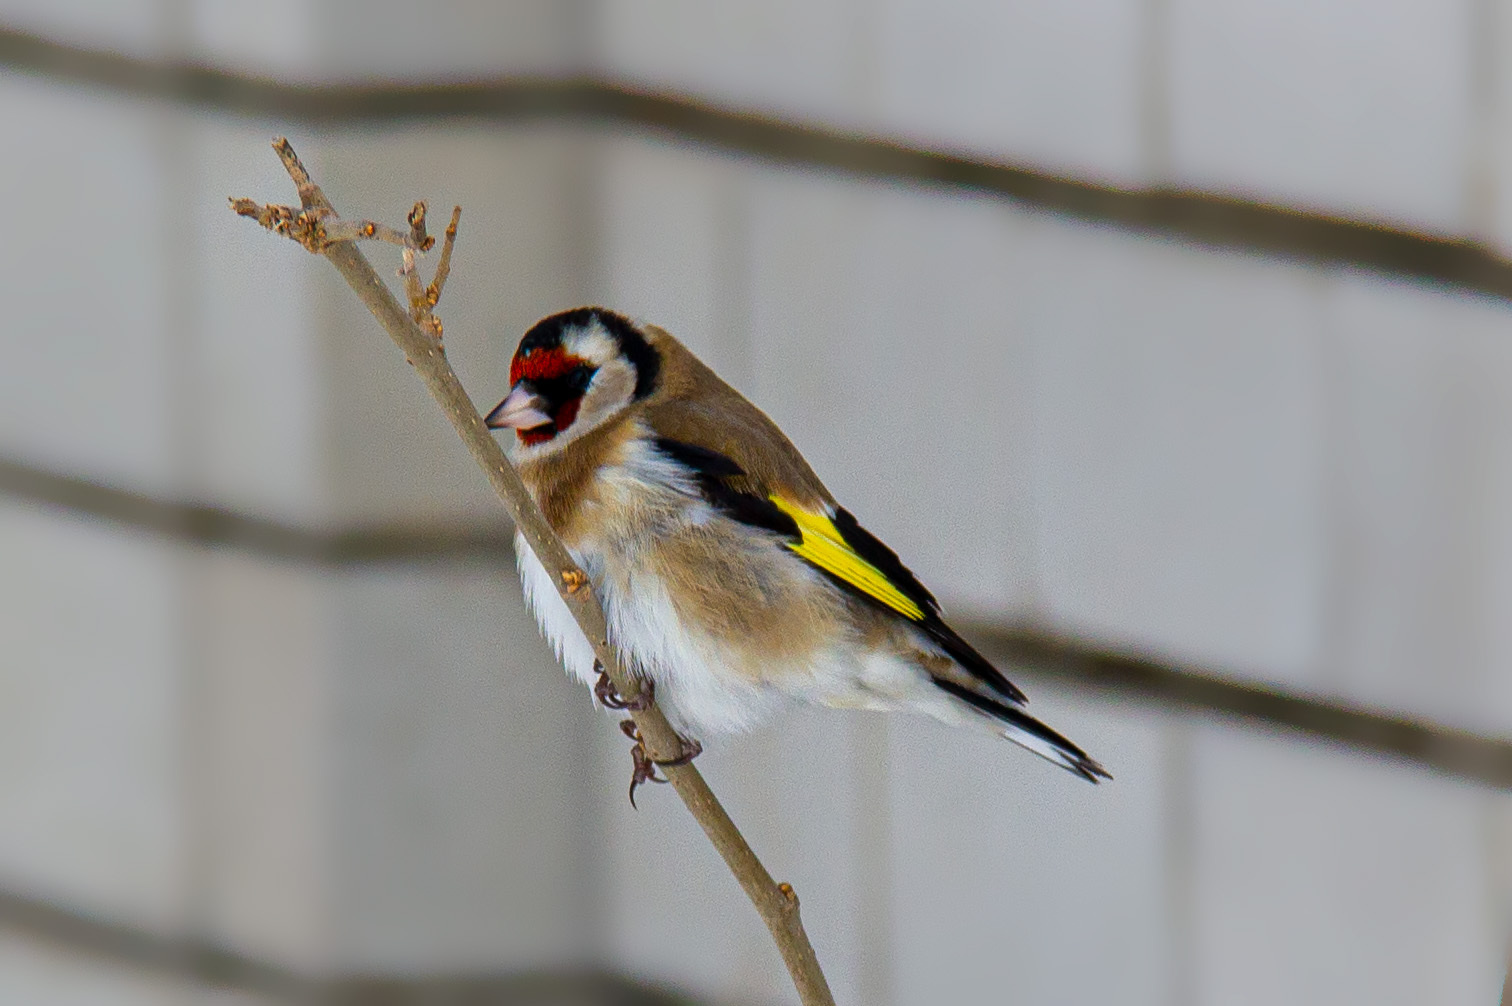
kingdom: Animalia
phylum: Chordata
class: Aves
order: Passeriformes
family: Fringillidae
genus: Carduelis
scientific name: Carduelis carduelis
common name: European goldfinch
